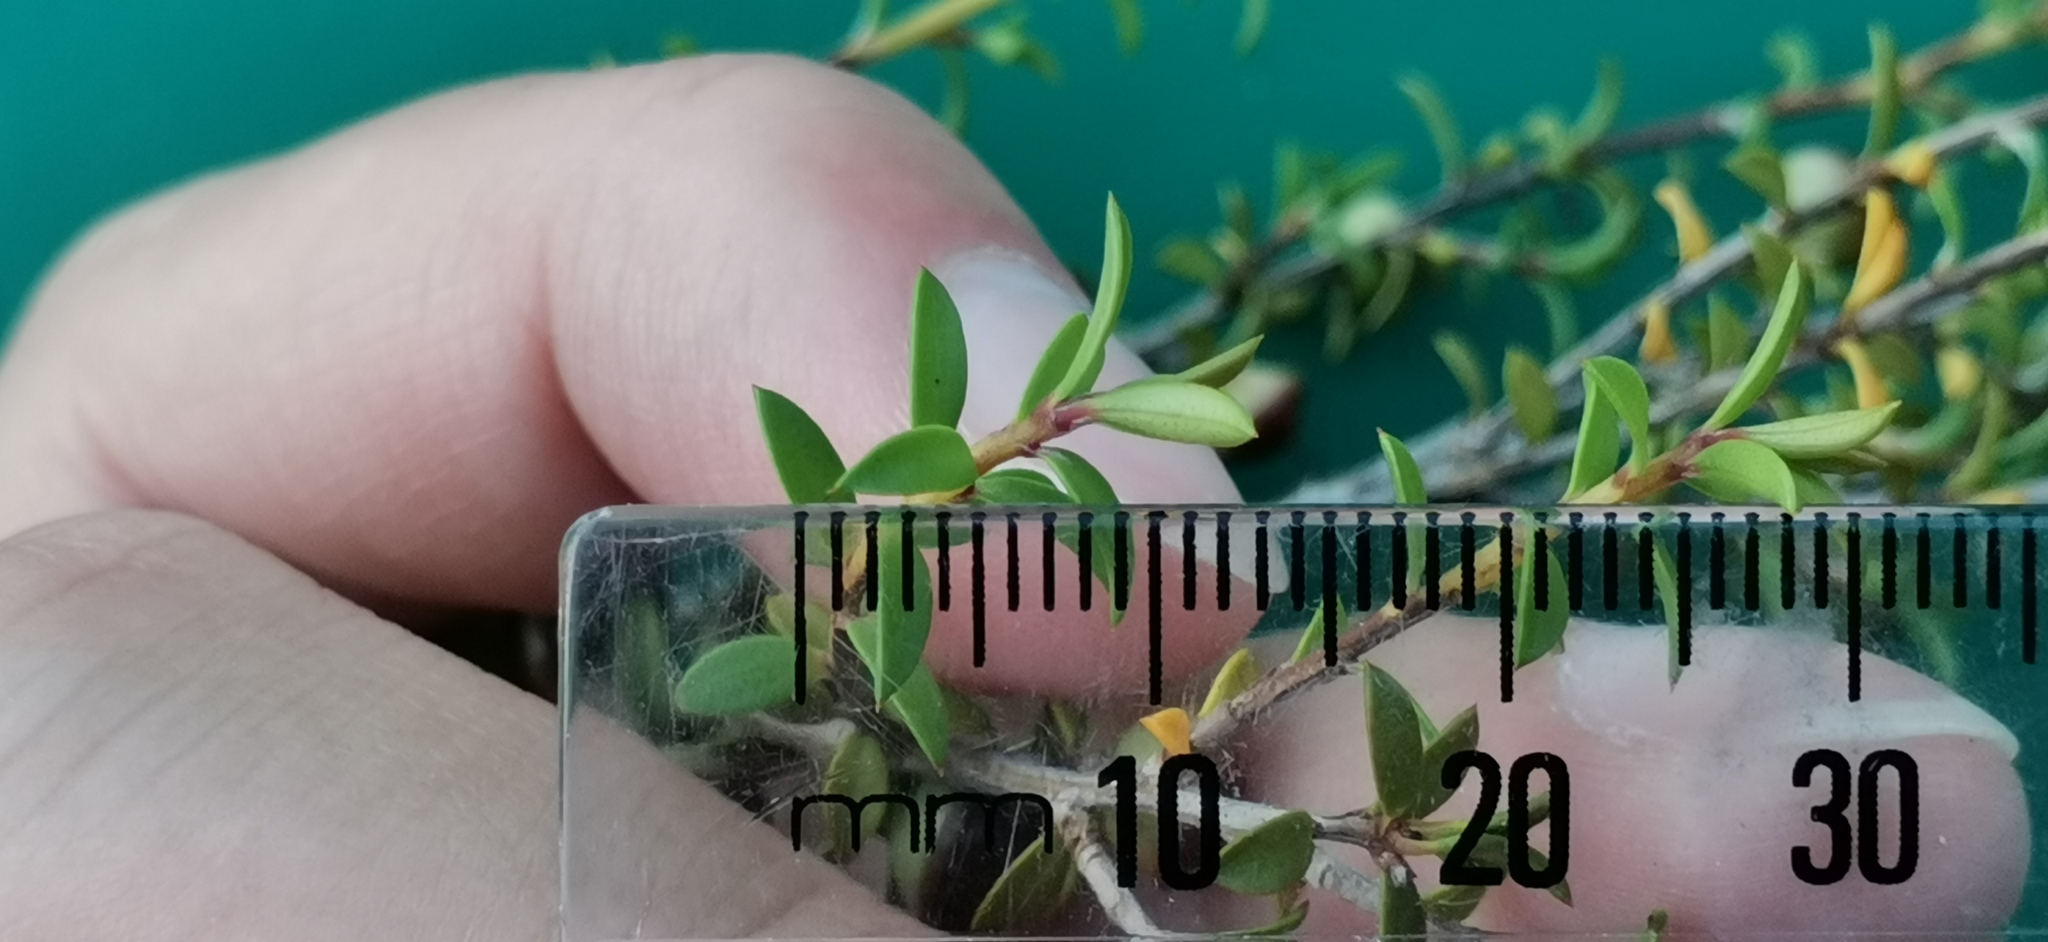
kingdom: Plantae
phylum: Tracheophyta
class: Magnoliopsida
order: Myrtales
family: Myrtaceae
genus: Leptospermum
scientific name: Leptospermum scoparium
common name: Broom tea-tree
